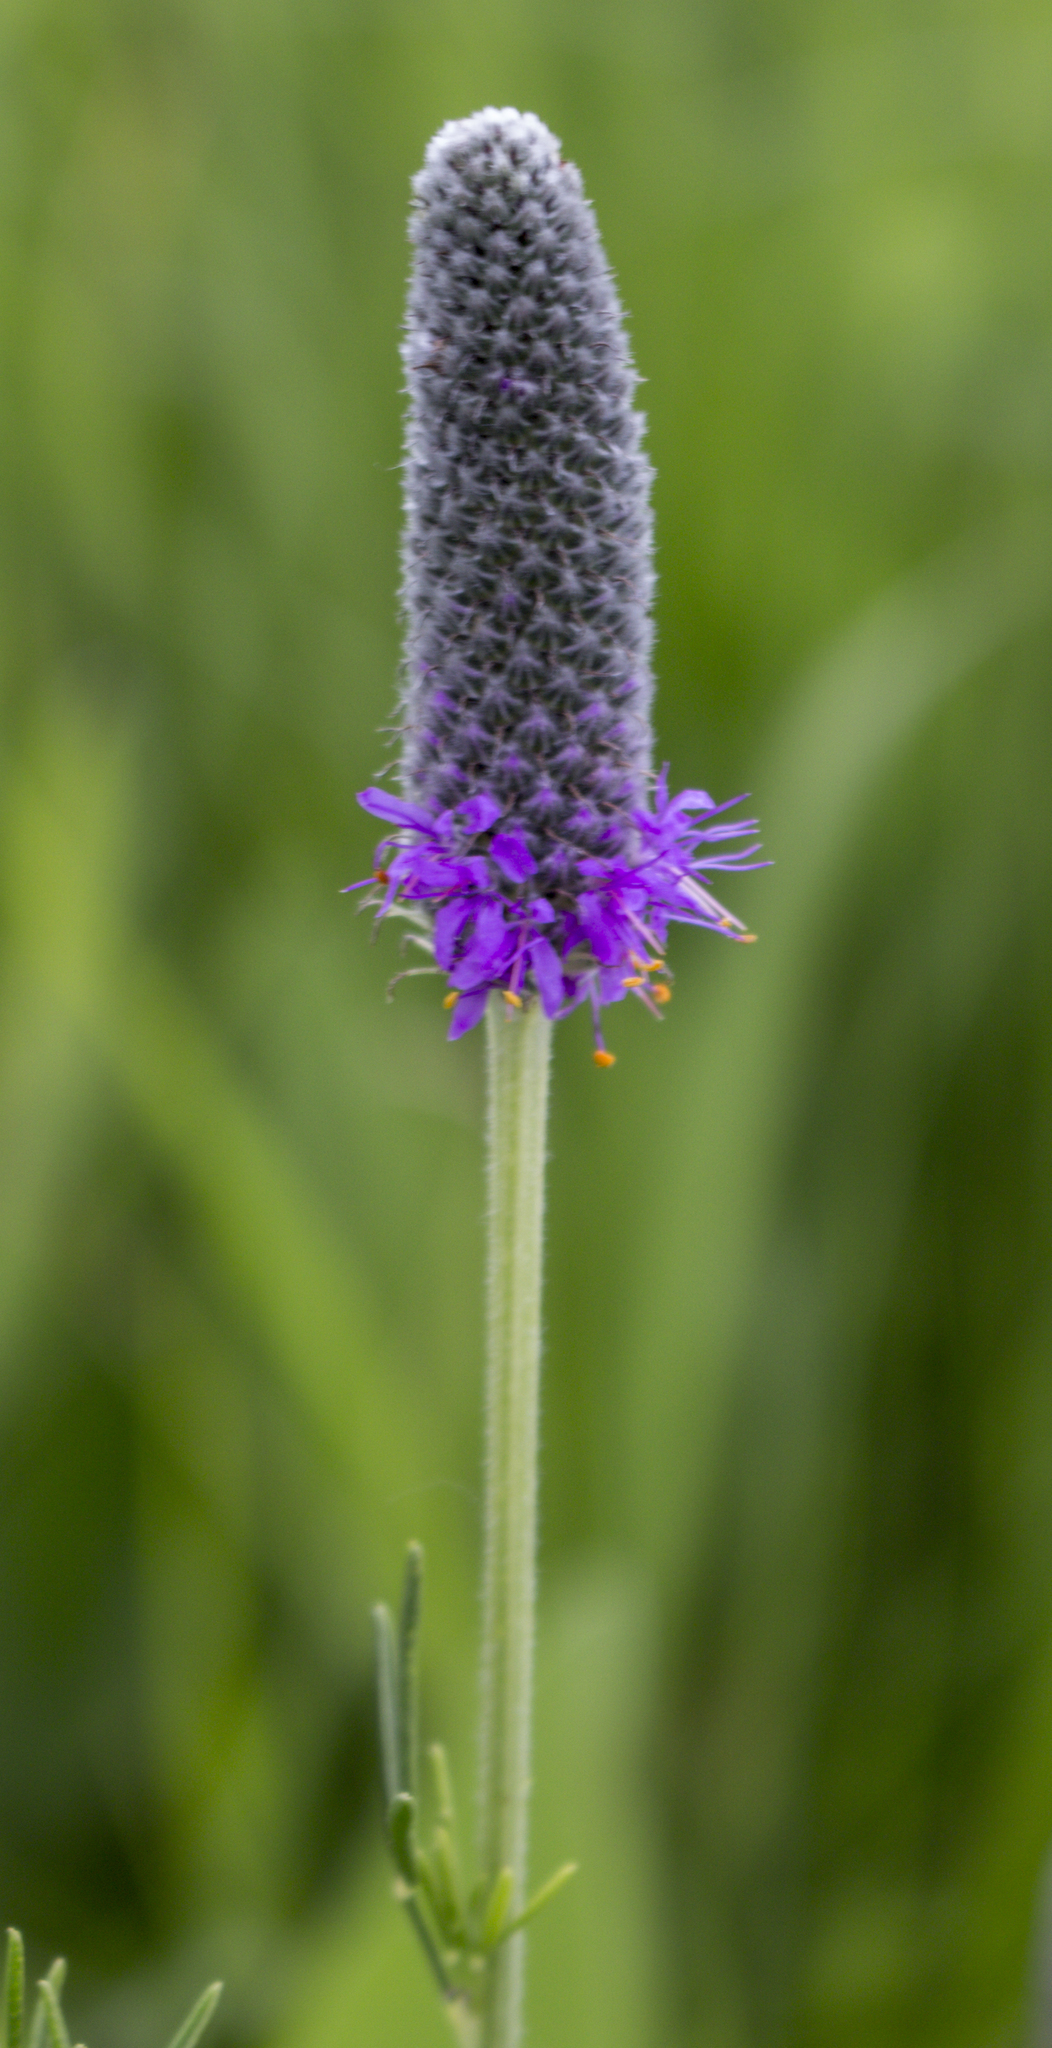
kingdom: Plantae
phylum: Tracheophyta
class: Magnoliopsida
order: Fabales
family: Fabaceae
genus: Dalea
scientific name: Dalea purpurea
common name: Purple prairie-clover
